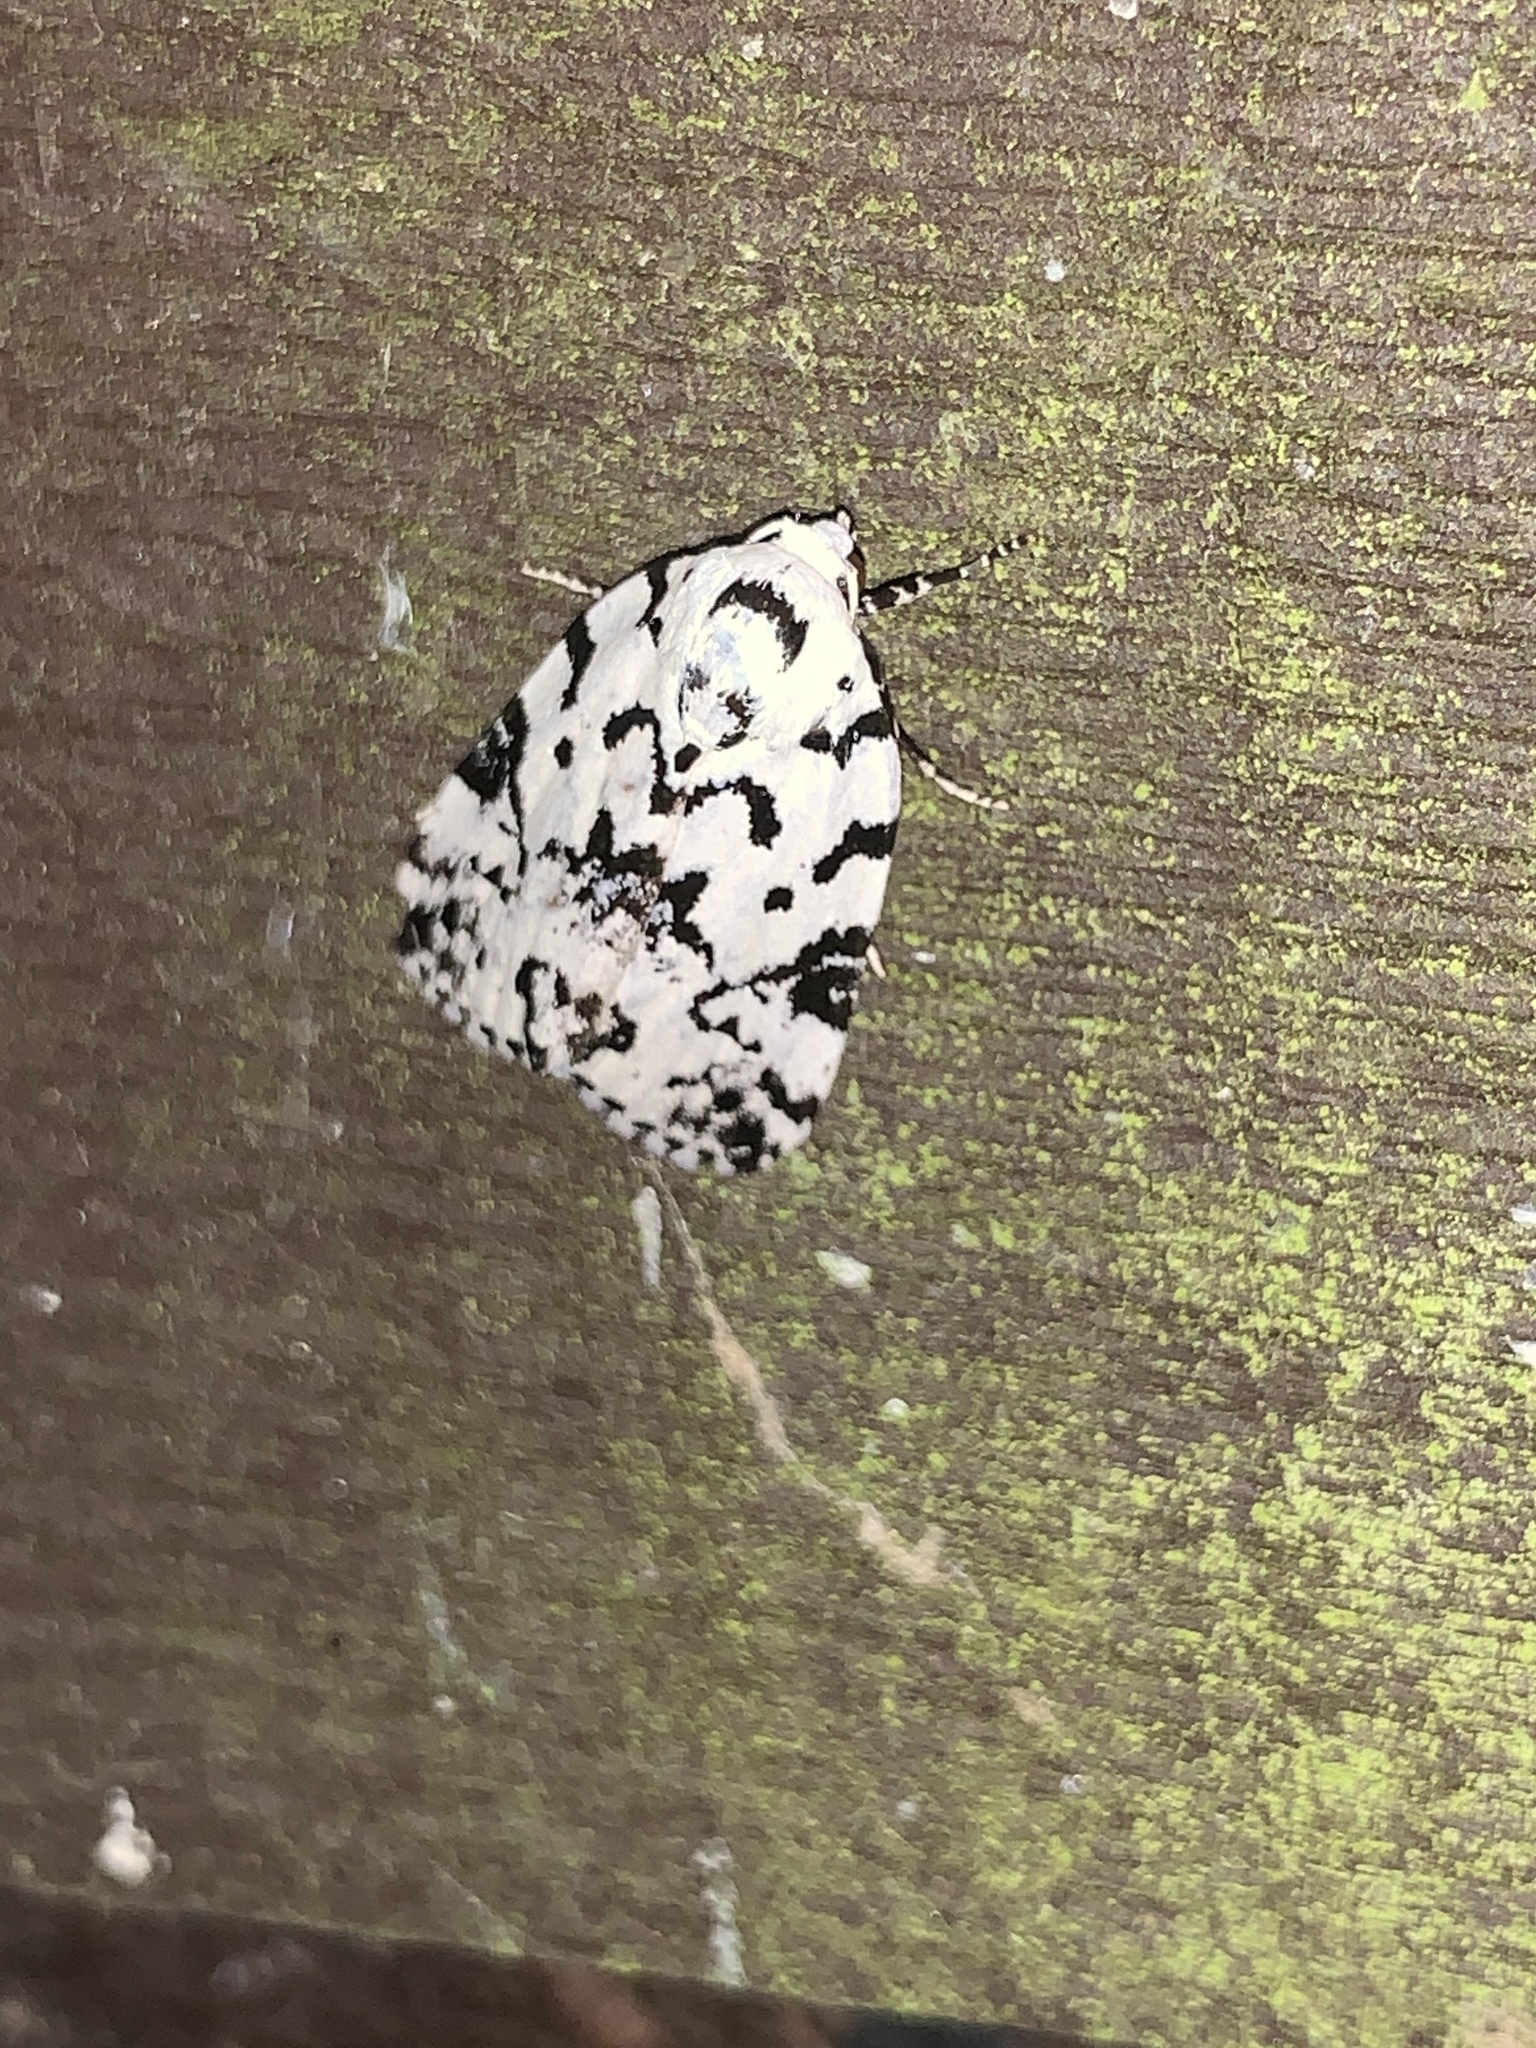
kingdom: Animalia
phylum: Arthropoda
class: Insecta
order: Lepidoptera
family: Noctuidae
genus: Polygrammate
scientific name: Polygrammate hebraeicum
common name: Hebrew moth
